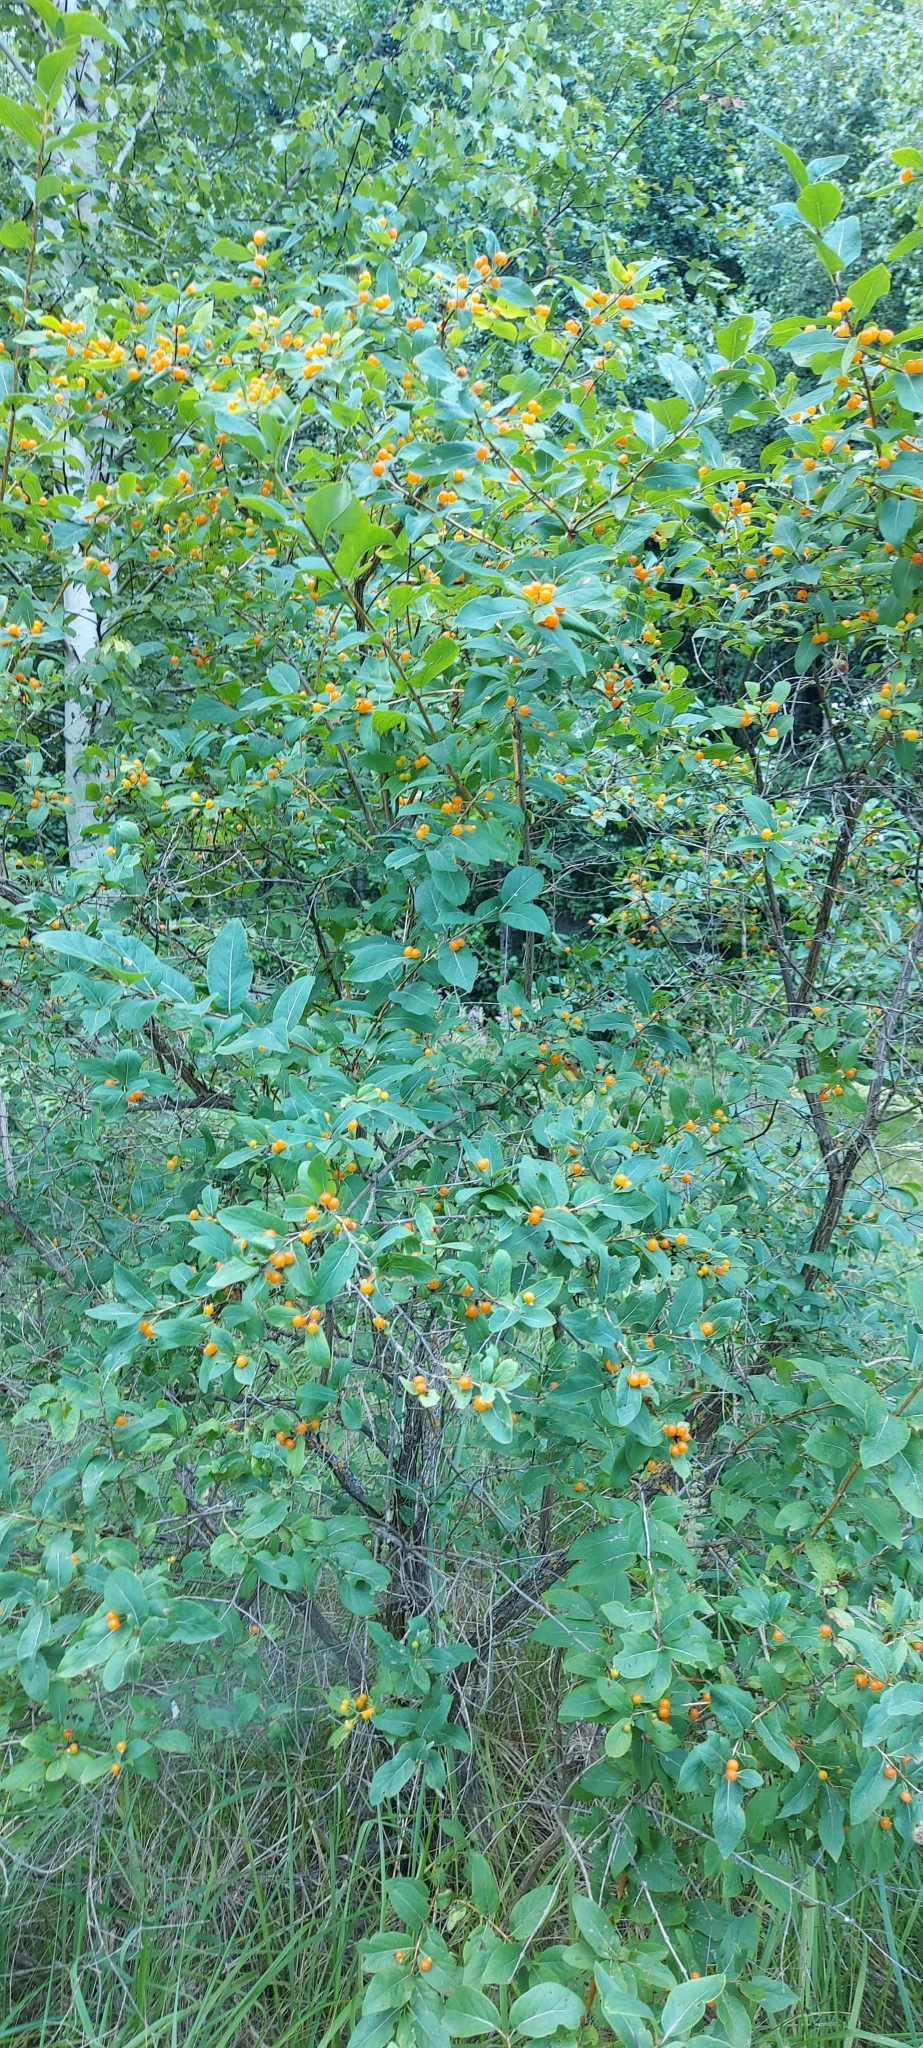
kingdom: Plantae
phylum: Tracheophyta
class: Magnoliopsida
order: Dipsacales
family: Caprifoliaceae
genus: Lonicera
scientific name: Lonicera tatarica
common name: Tatarian honeysuckle
